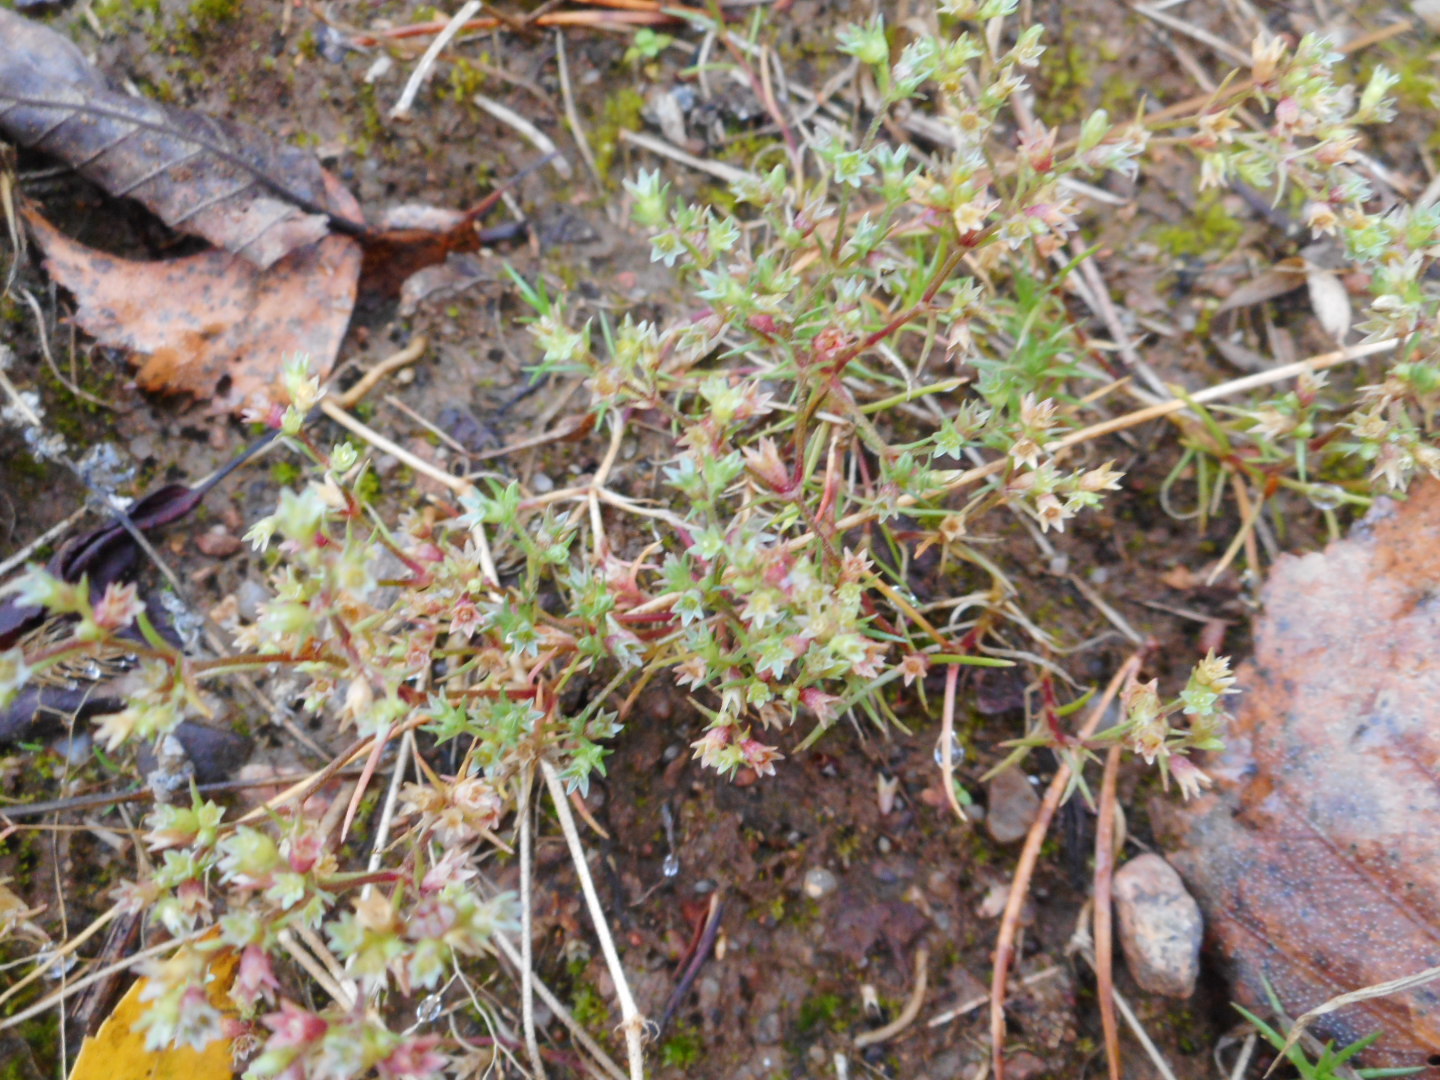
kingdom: Plantae
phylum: Tracheophyta
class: Magnoliopsida
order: Caryophyllales
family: Caryophyllaceae
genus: Scleranthus
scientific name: Scleranthus annuus
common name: Annual knawel
